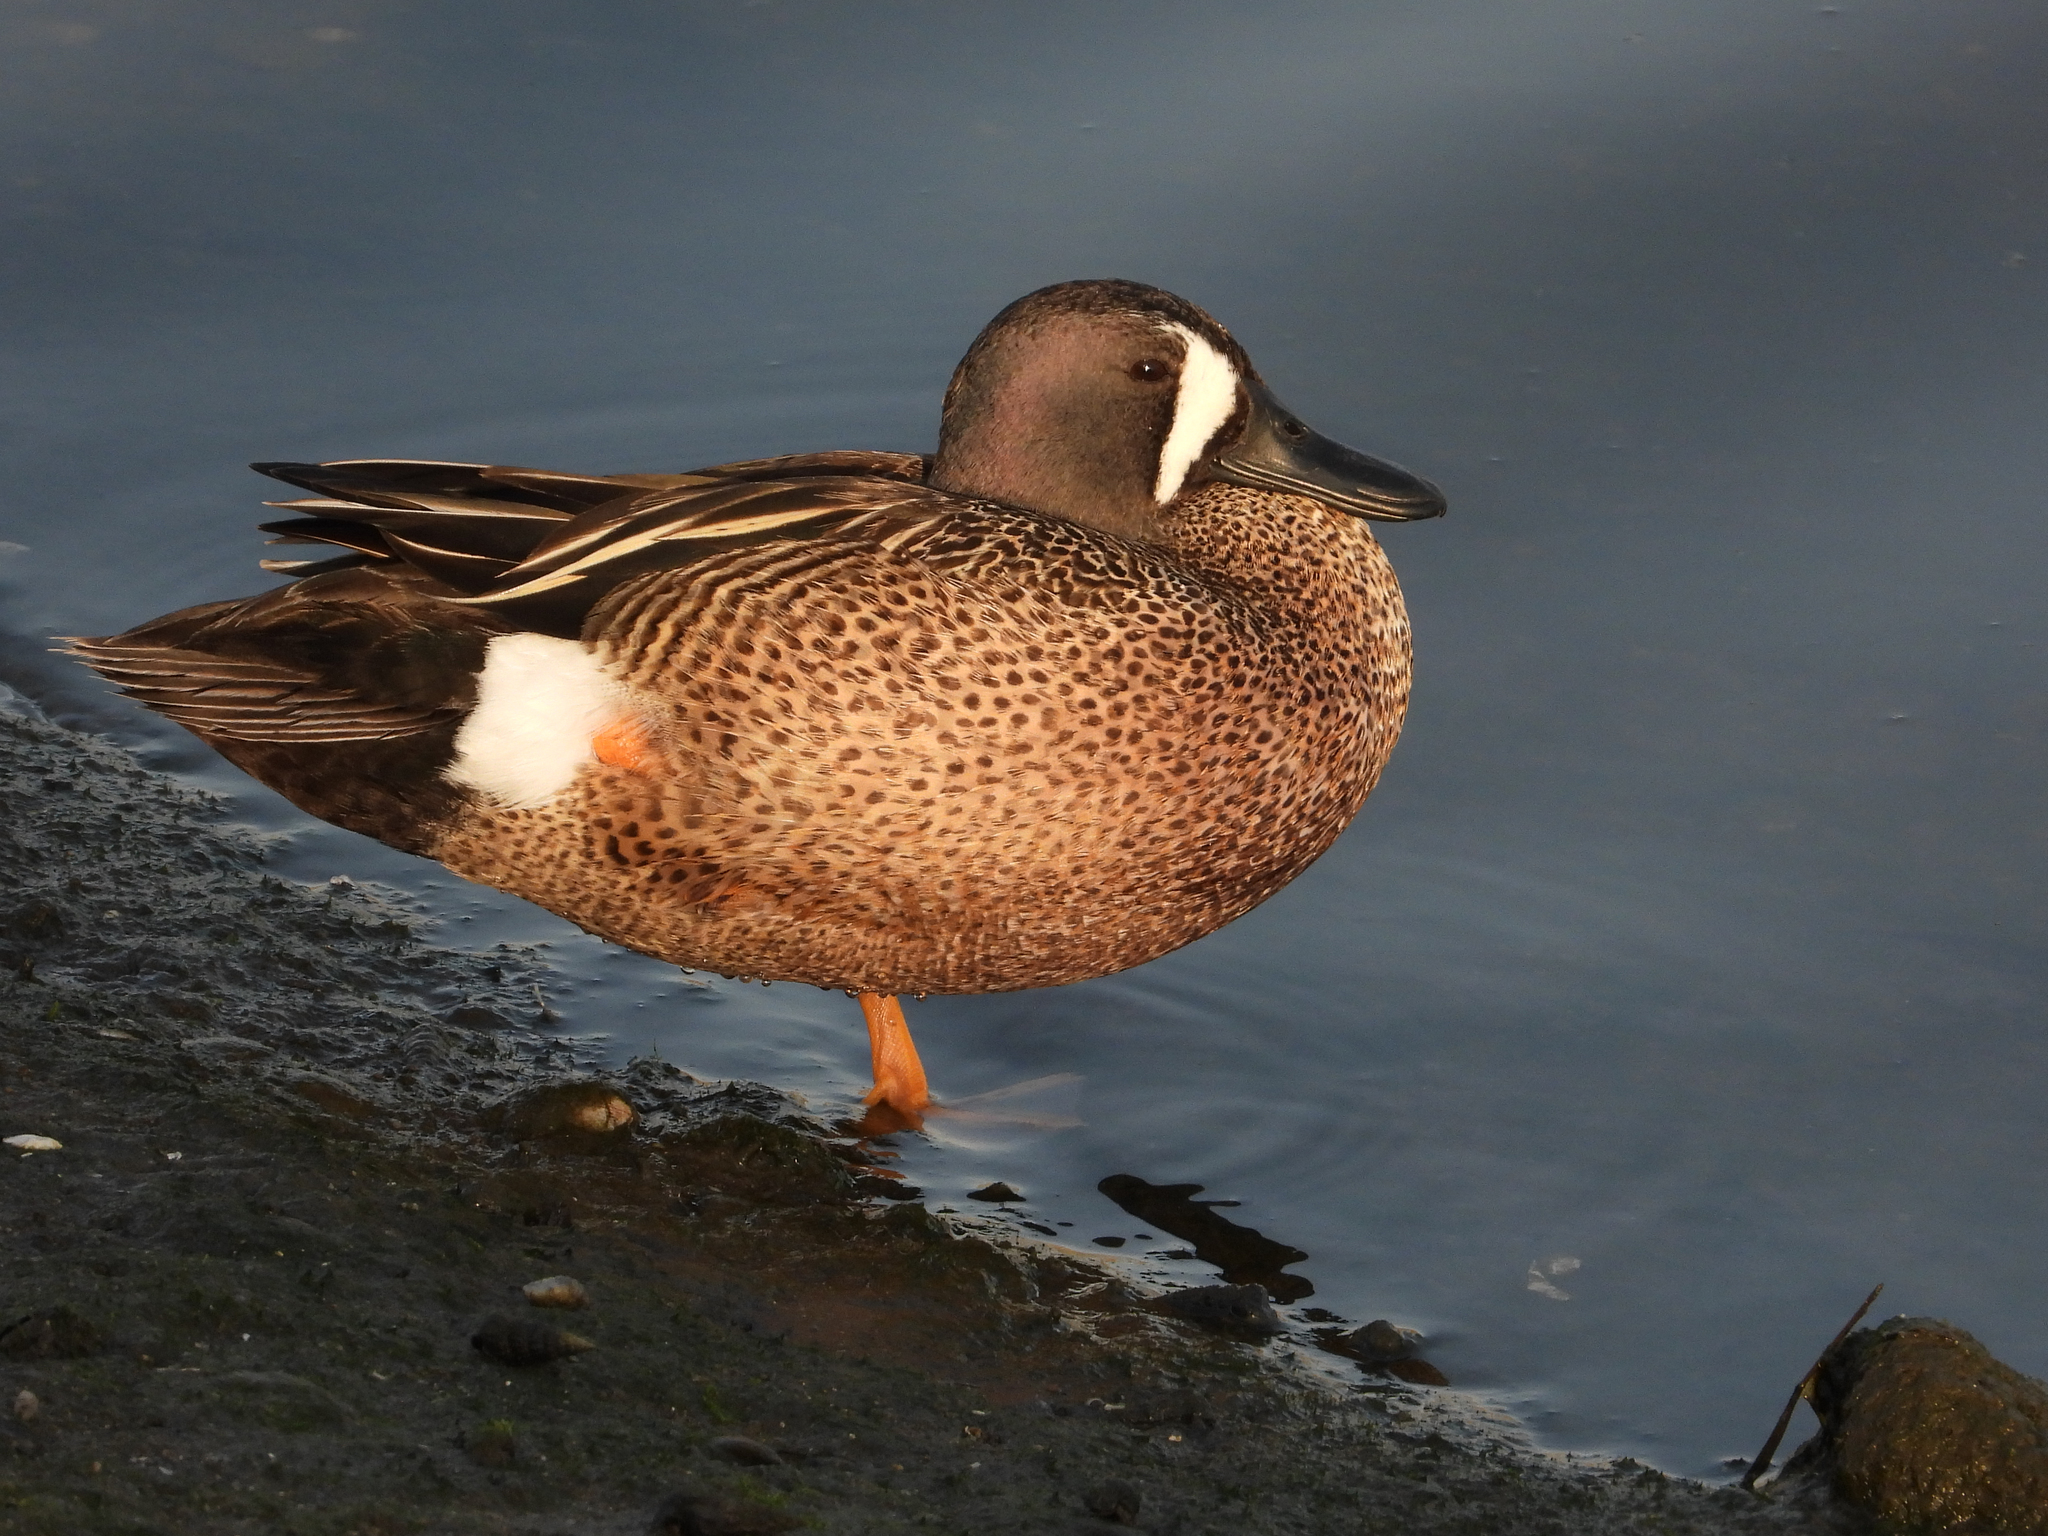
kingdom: Animalia
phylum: Chordata
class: Aves
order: Anseriformes
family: Anatidae
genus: Spatula
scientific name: Spatula discors
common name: Blue-winged teal
